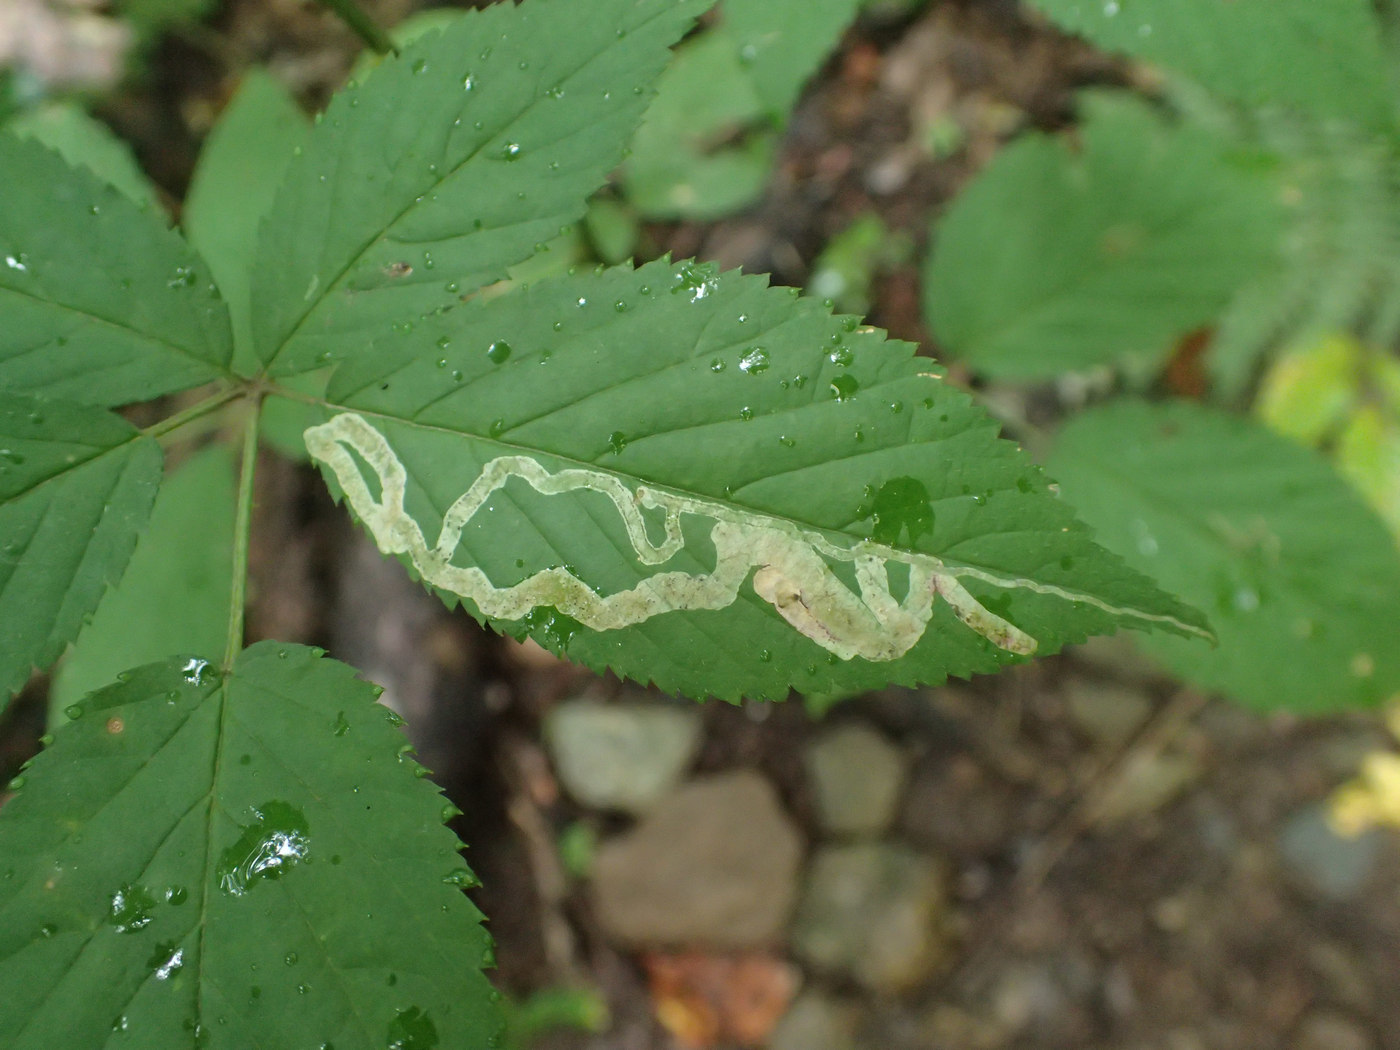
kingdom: Animalia
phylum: Arthropoda
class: Insecta
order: Diptera
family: Agromyzidae
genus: Agromyza
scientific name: Agromyza vockerothi
